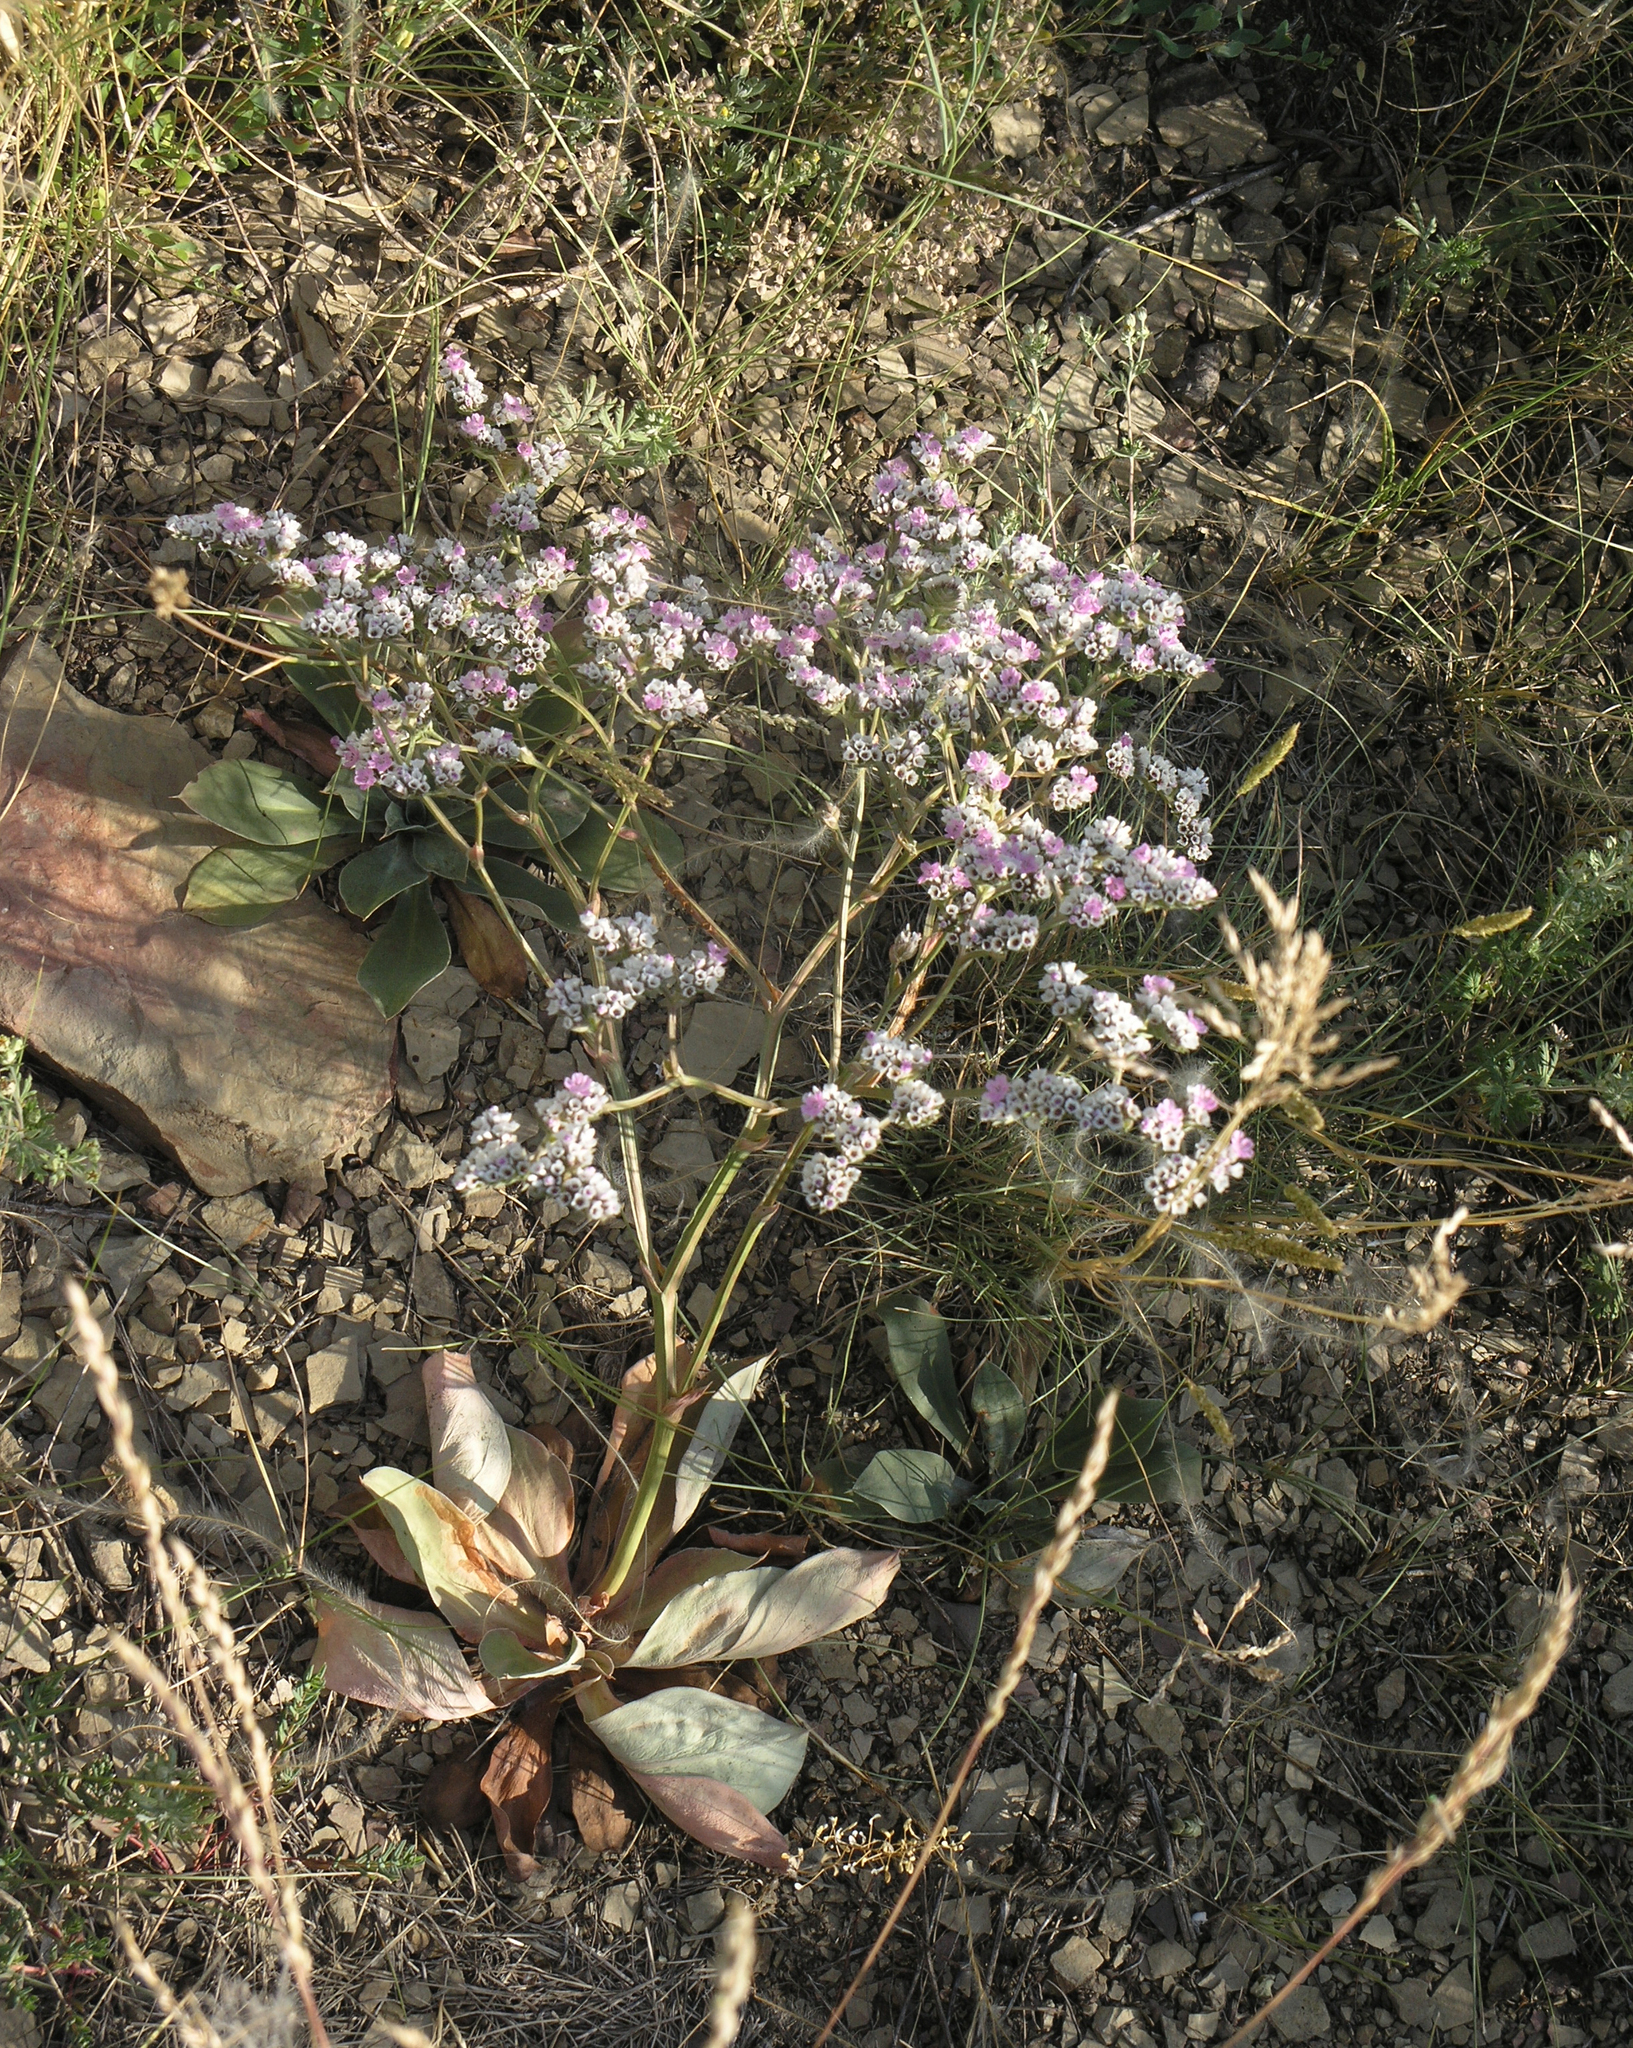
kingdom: Plantae
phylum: Tracheophyta
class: Magnoliopsida
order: Caryophyllales
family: Plumbaginaceae
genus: Goniolimon
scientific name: Goniolimon speciosum
